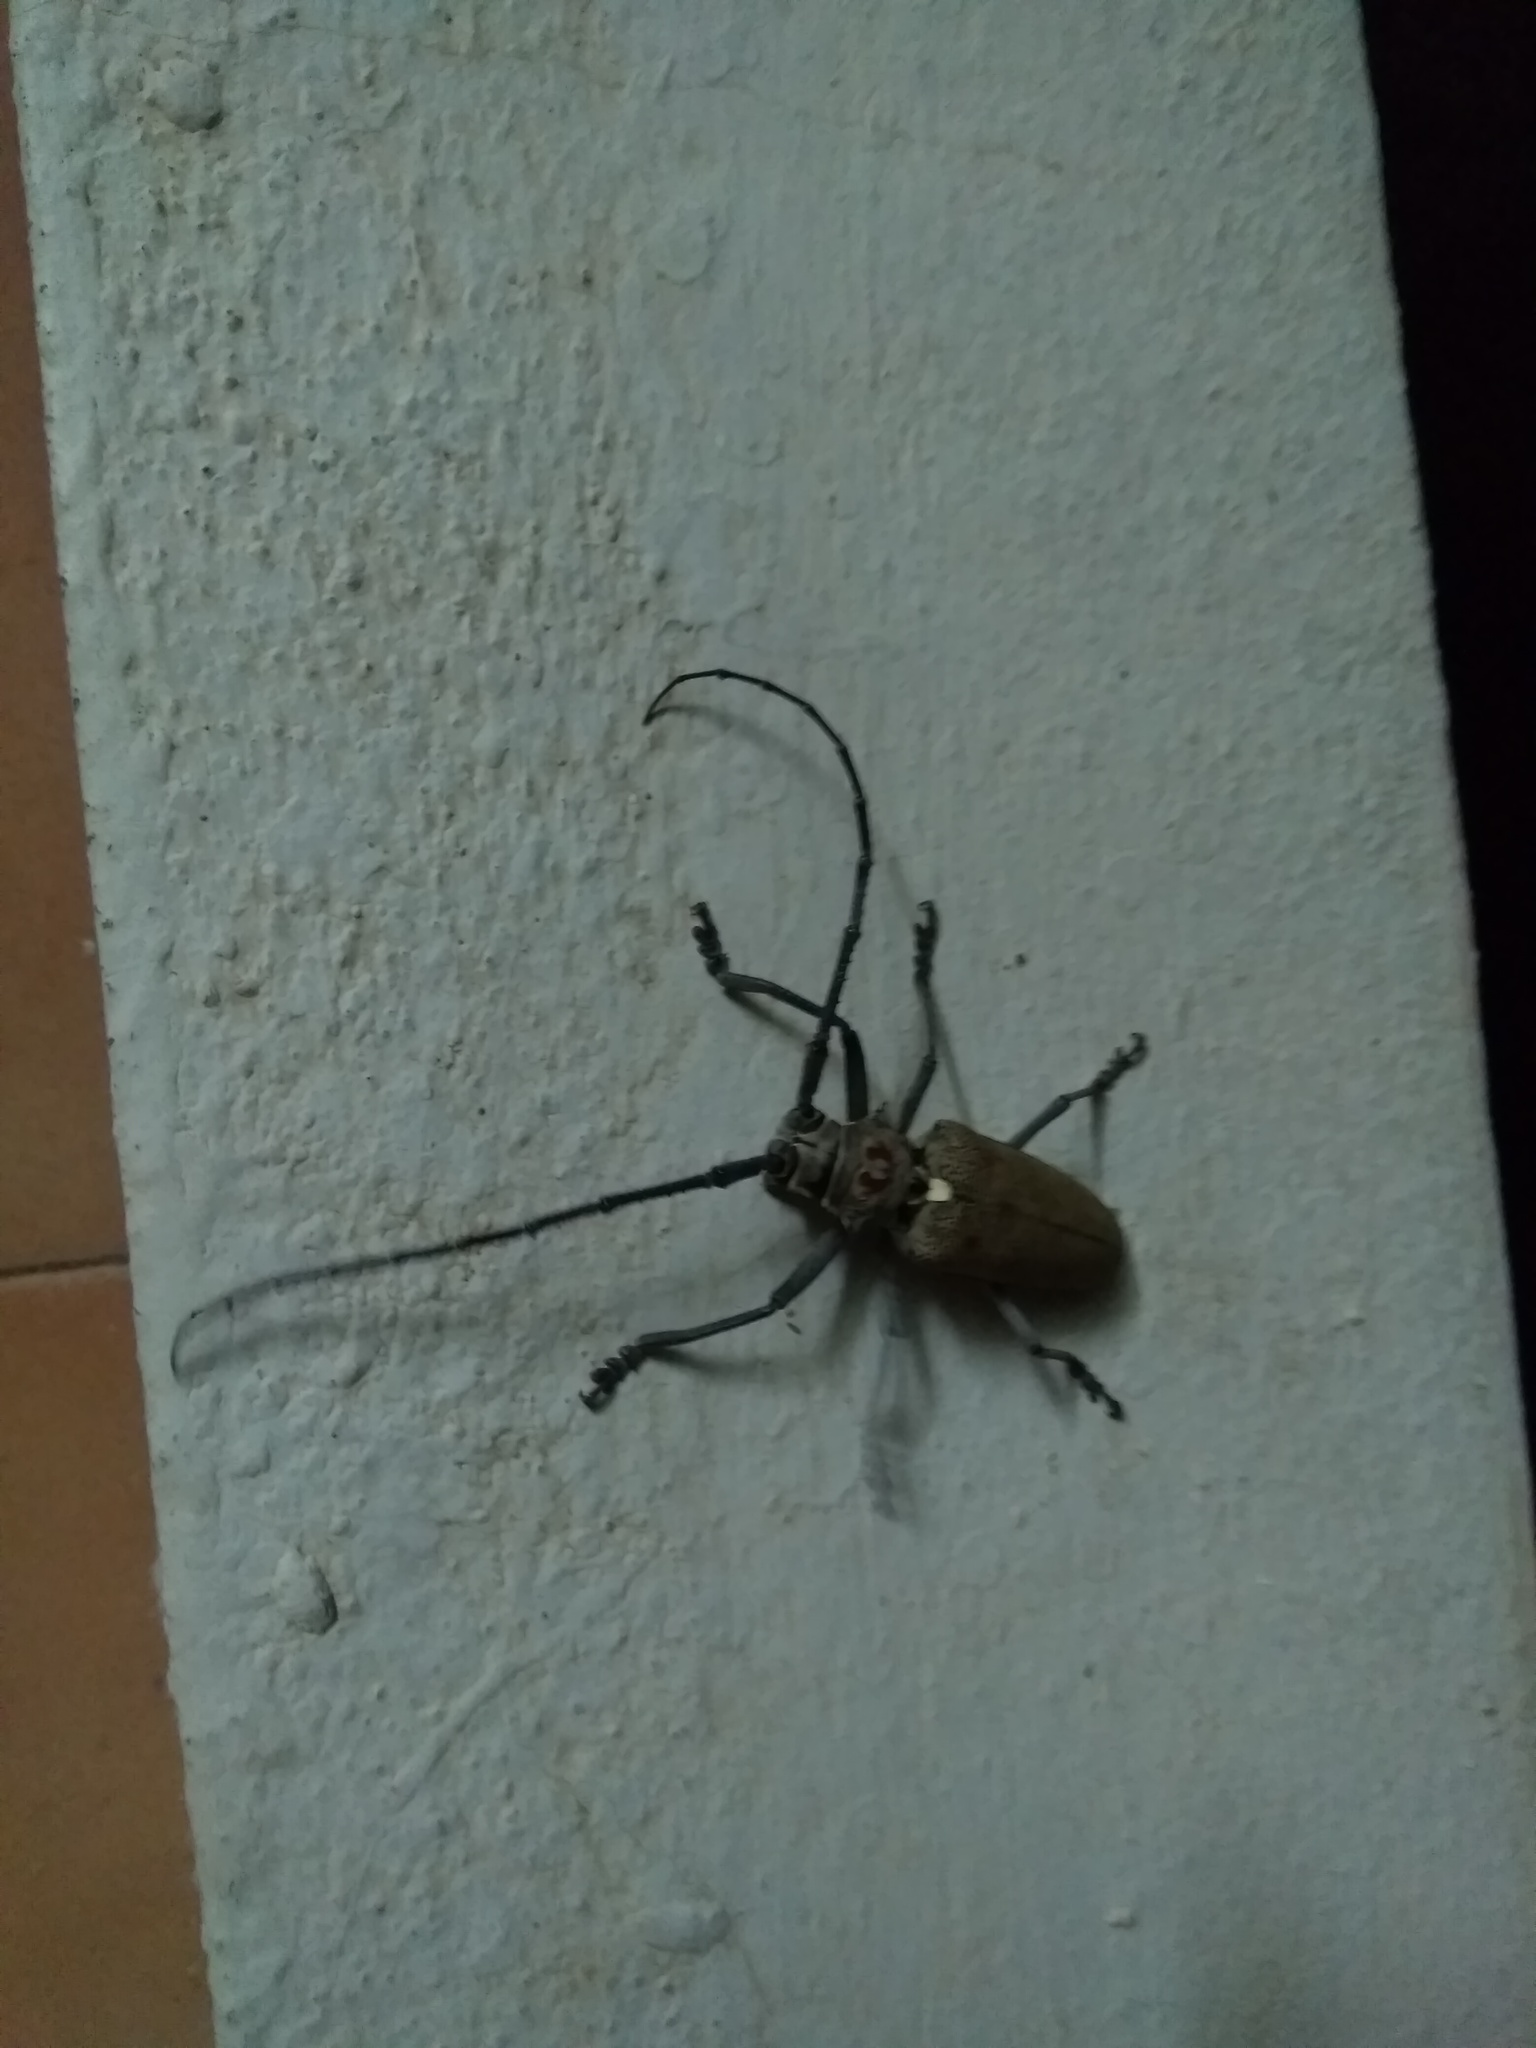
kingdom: Animalia
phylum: Arthropoda
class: Insecta
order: Coleoptera
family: Cerambycidae
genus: Batocera
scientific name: Batocera rufomaculata
